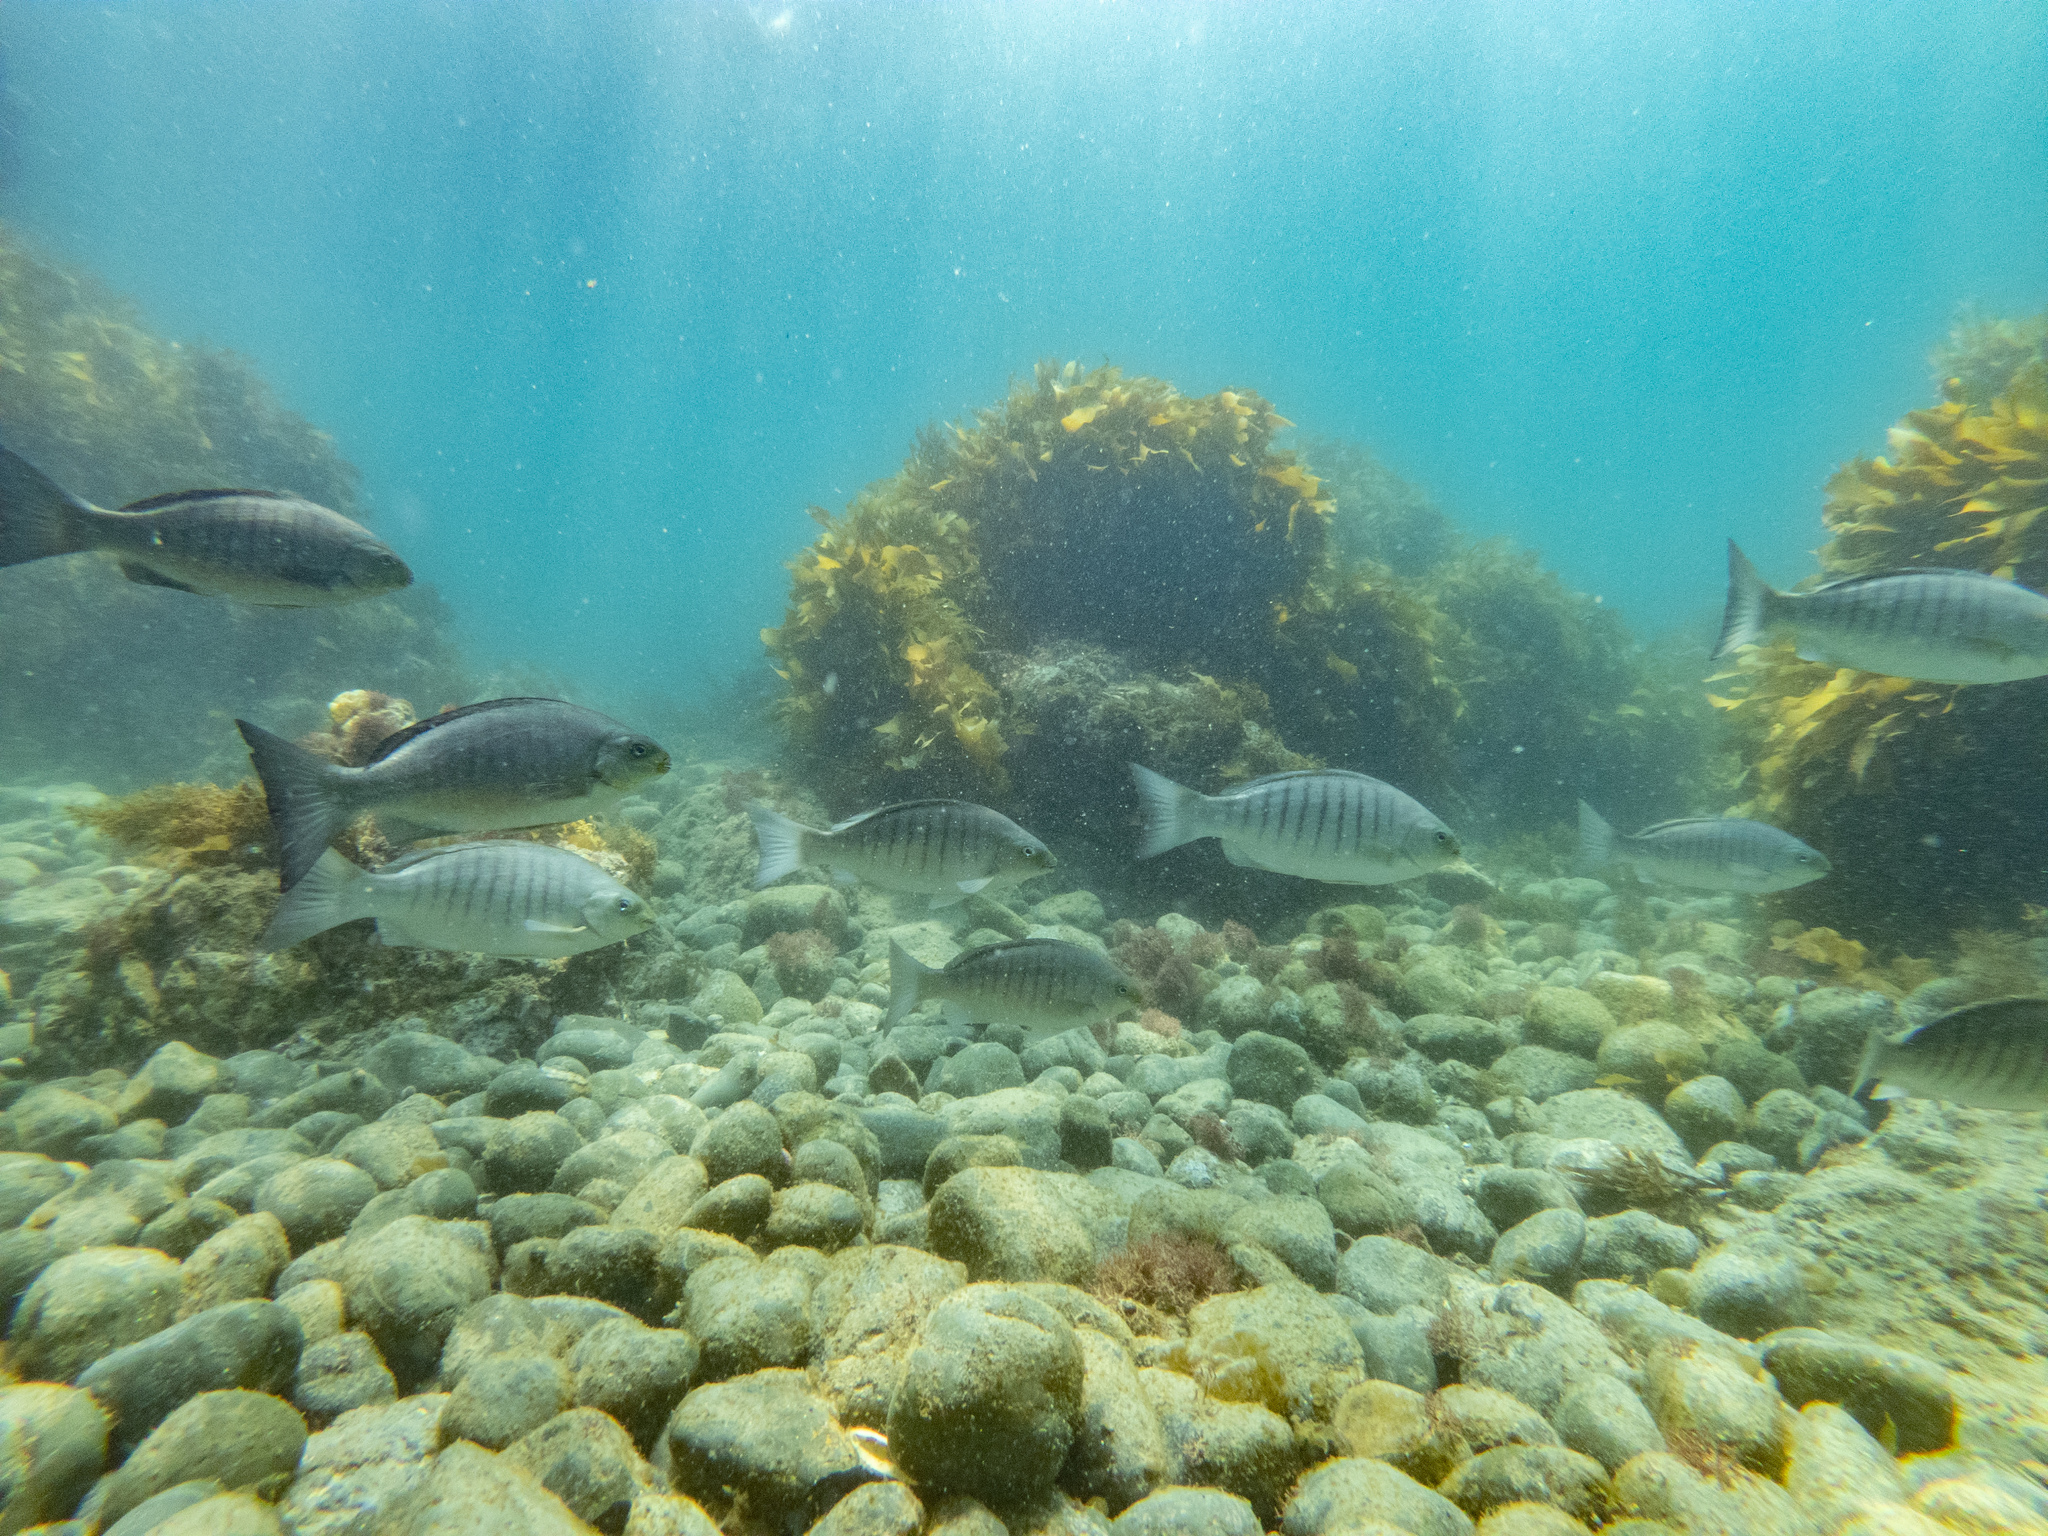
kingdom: Animalia
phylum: Chordata
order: Perciformes
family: Kyphosidae
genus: Girella
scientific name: Girella tricuspidata
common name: Parore
